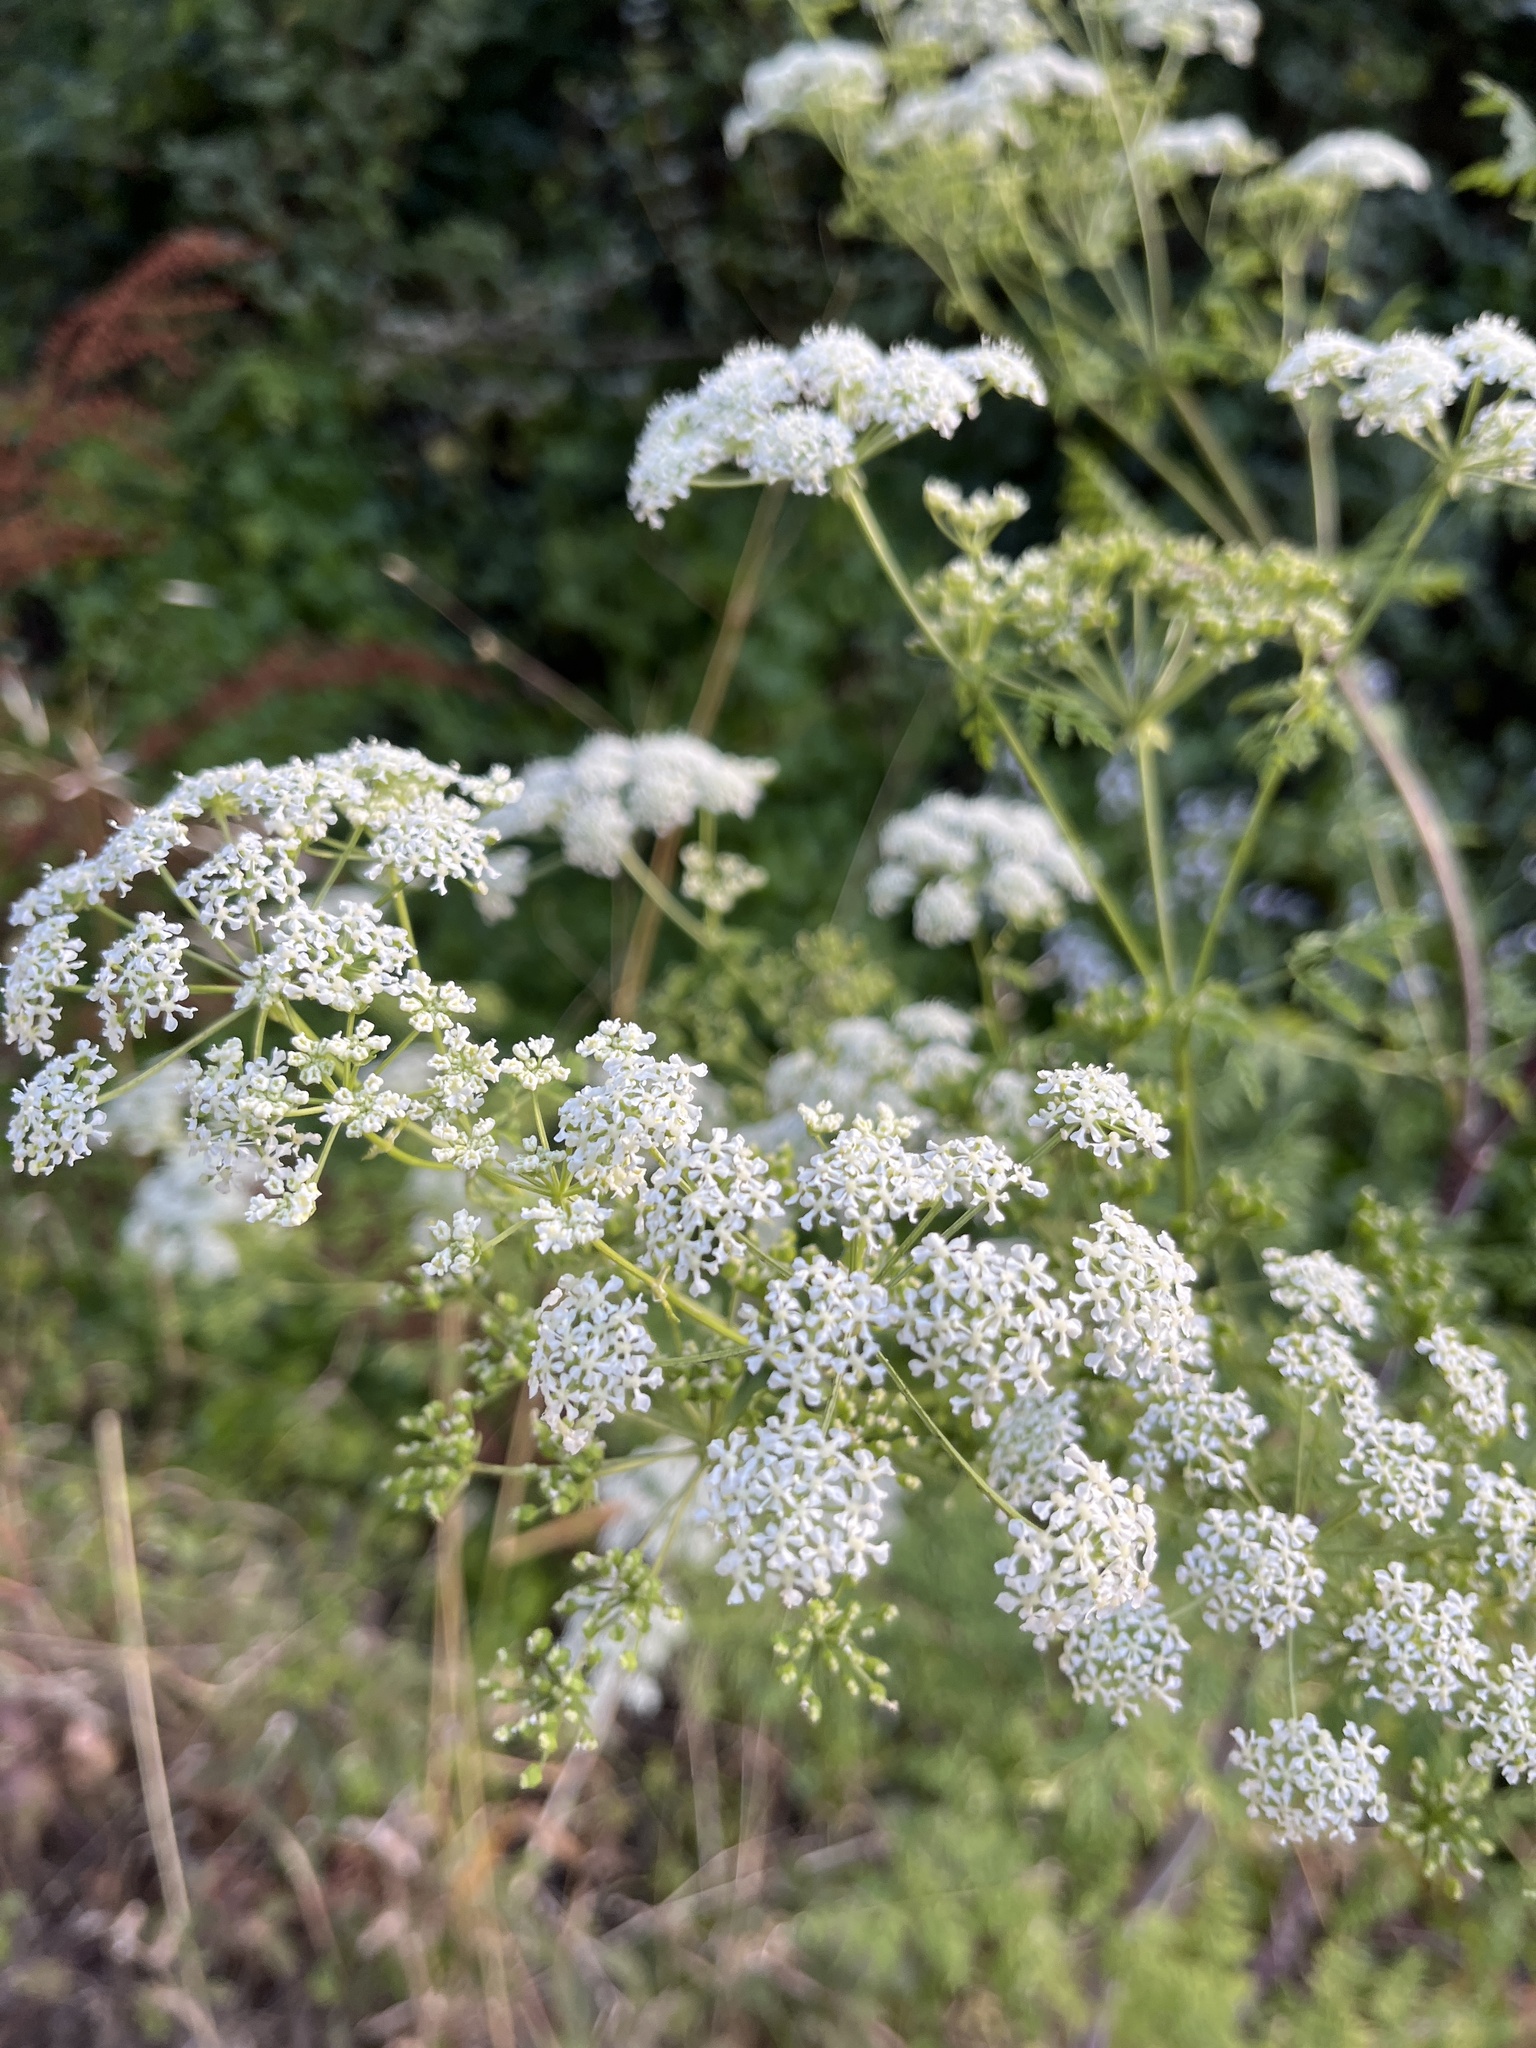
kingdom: Plantae
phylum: Tracheophyta
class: Magnoliopsida
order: Apiales
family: Apiaceae
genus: Conium
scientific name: Conium maculatum
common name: Hemlock
